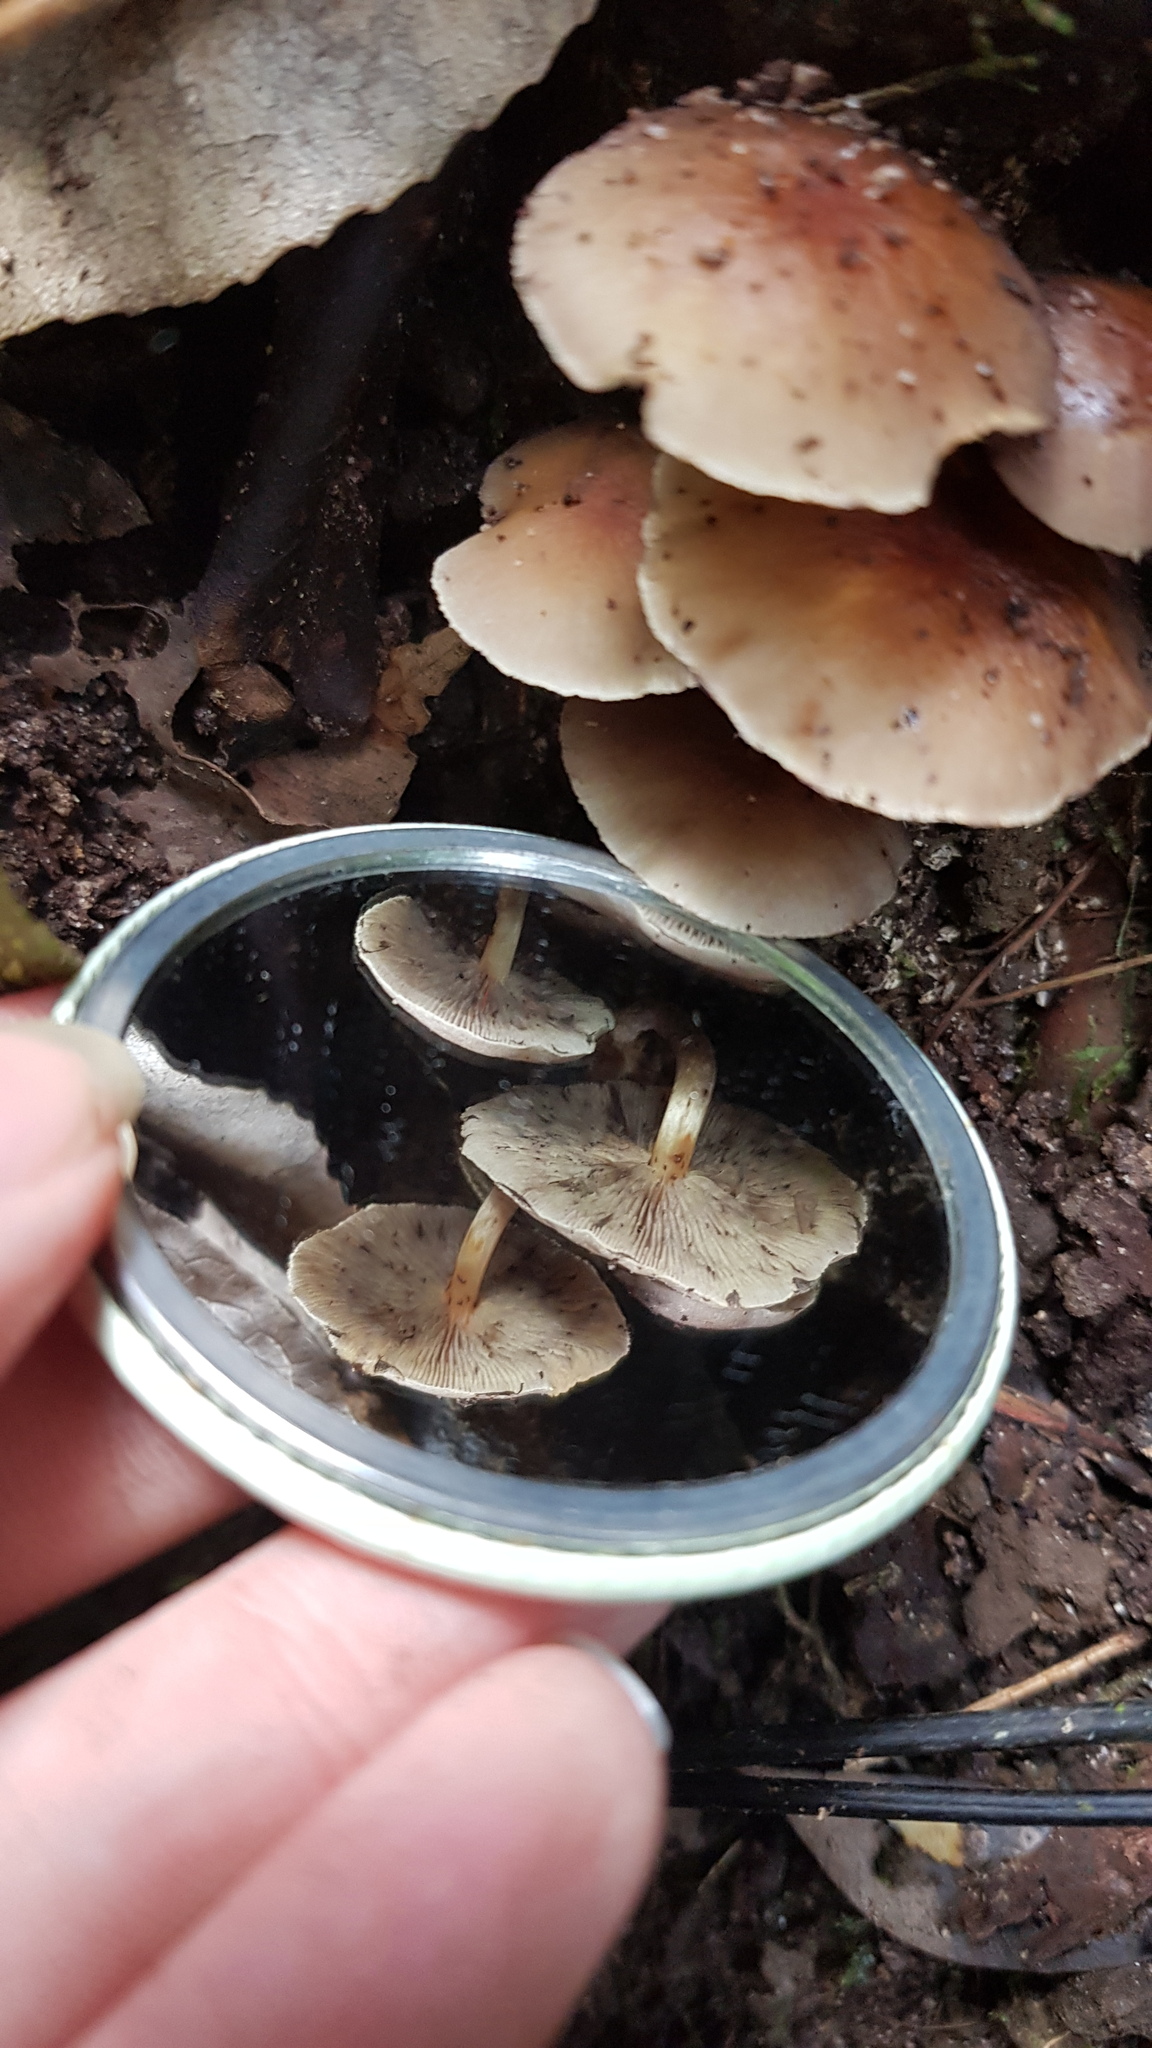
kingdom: Fungi
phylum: Basidiomycota
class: Agaricomycetes
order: Agaricales
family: Strophariaceae
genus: Hypholoma
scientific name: Hypholoma fasciculare
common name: Sulphur tuft
